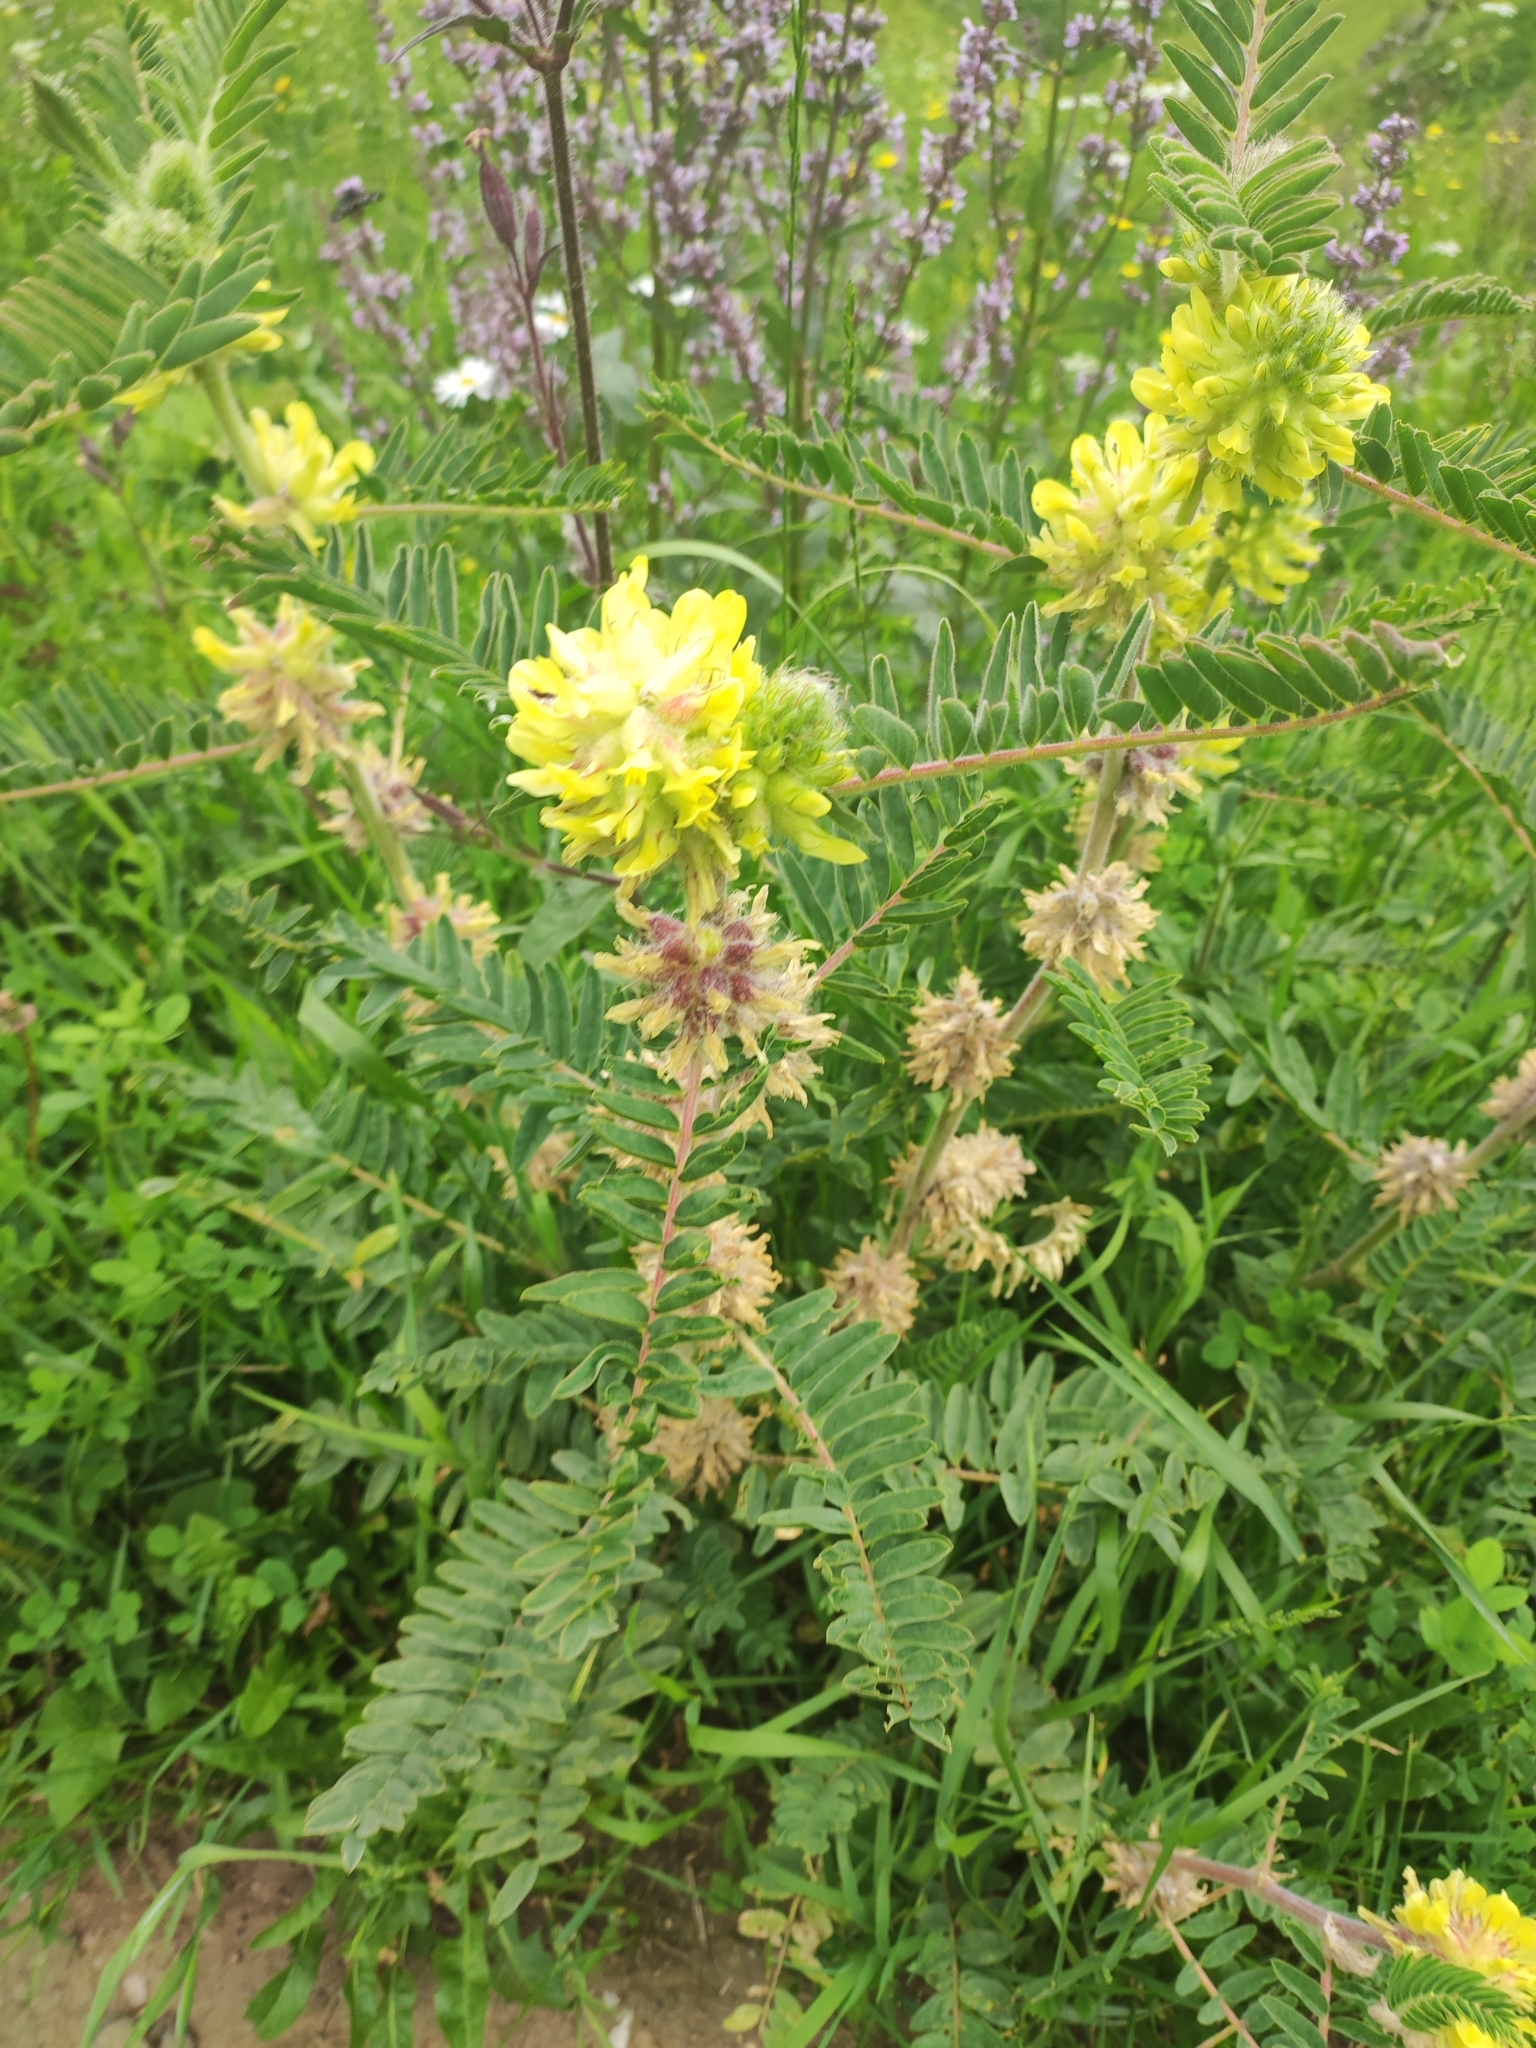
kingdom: Plantae
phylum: Tracheophyta
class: Magnoliopsida
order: Fabales
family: Fabaceae
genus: Astragalus
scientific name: Astragalus macrocephalus
